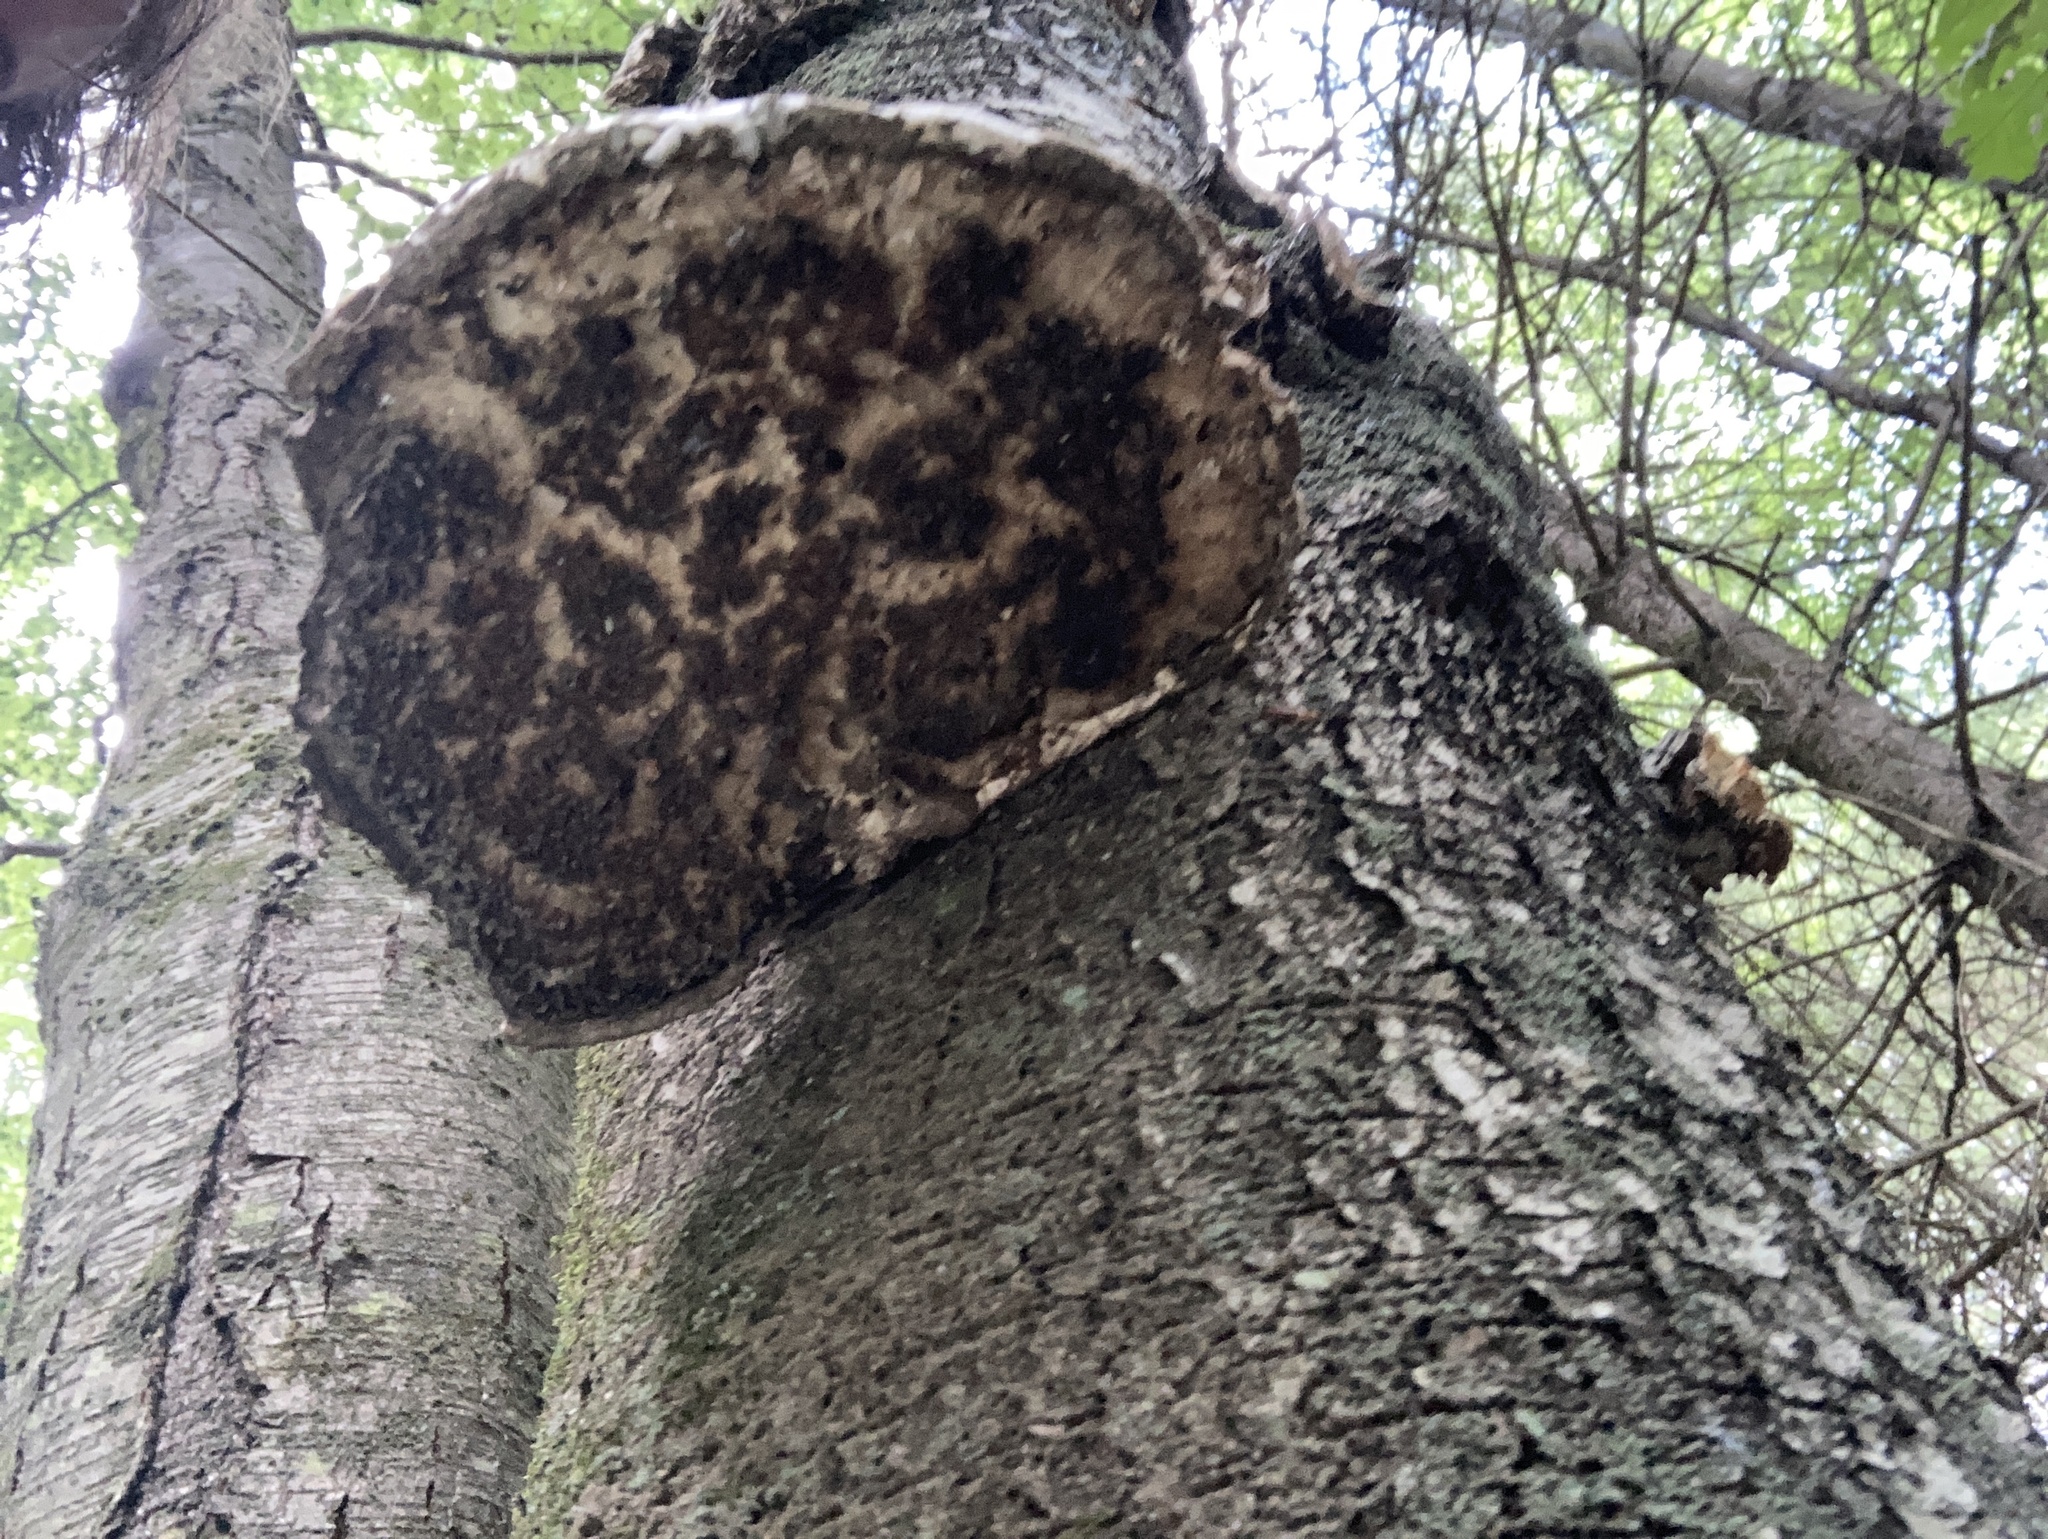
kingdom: Fungi
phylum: Basidiomycota
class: Agaricomycetes
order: Polyporales
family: Fomitopsidaceae
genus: Fomitopsis
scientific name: Fomitopsis betulina
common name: Birch polypore
